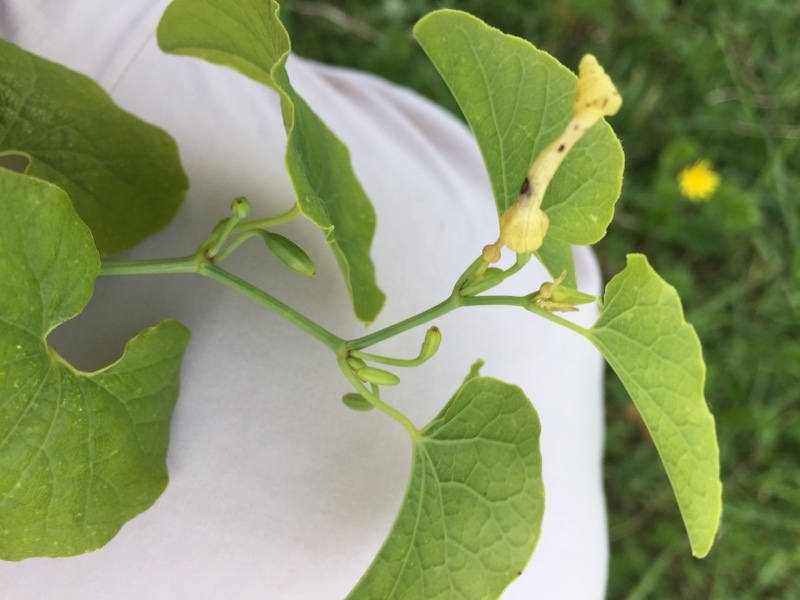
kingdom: Plantae
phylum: Tracheophyta
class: Magnoliopsida
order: Piperales
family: Aristolochiaceae
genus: Aristolochia
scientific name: Aristolochia clematitis
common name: Birthwort
